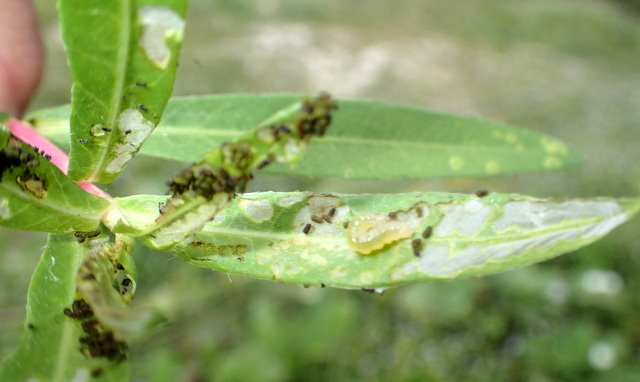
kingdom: Animalia
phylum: Arthropoda
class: Insecta
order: Coleoptera
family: Chrysomelidae
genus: Agasicles
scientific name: Agasicles hygrophila
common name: Alligatorweed flea beetle
